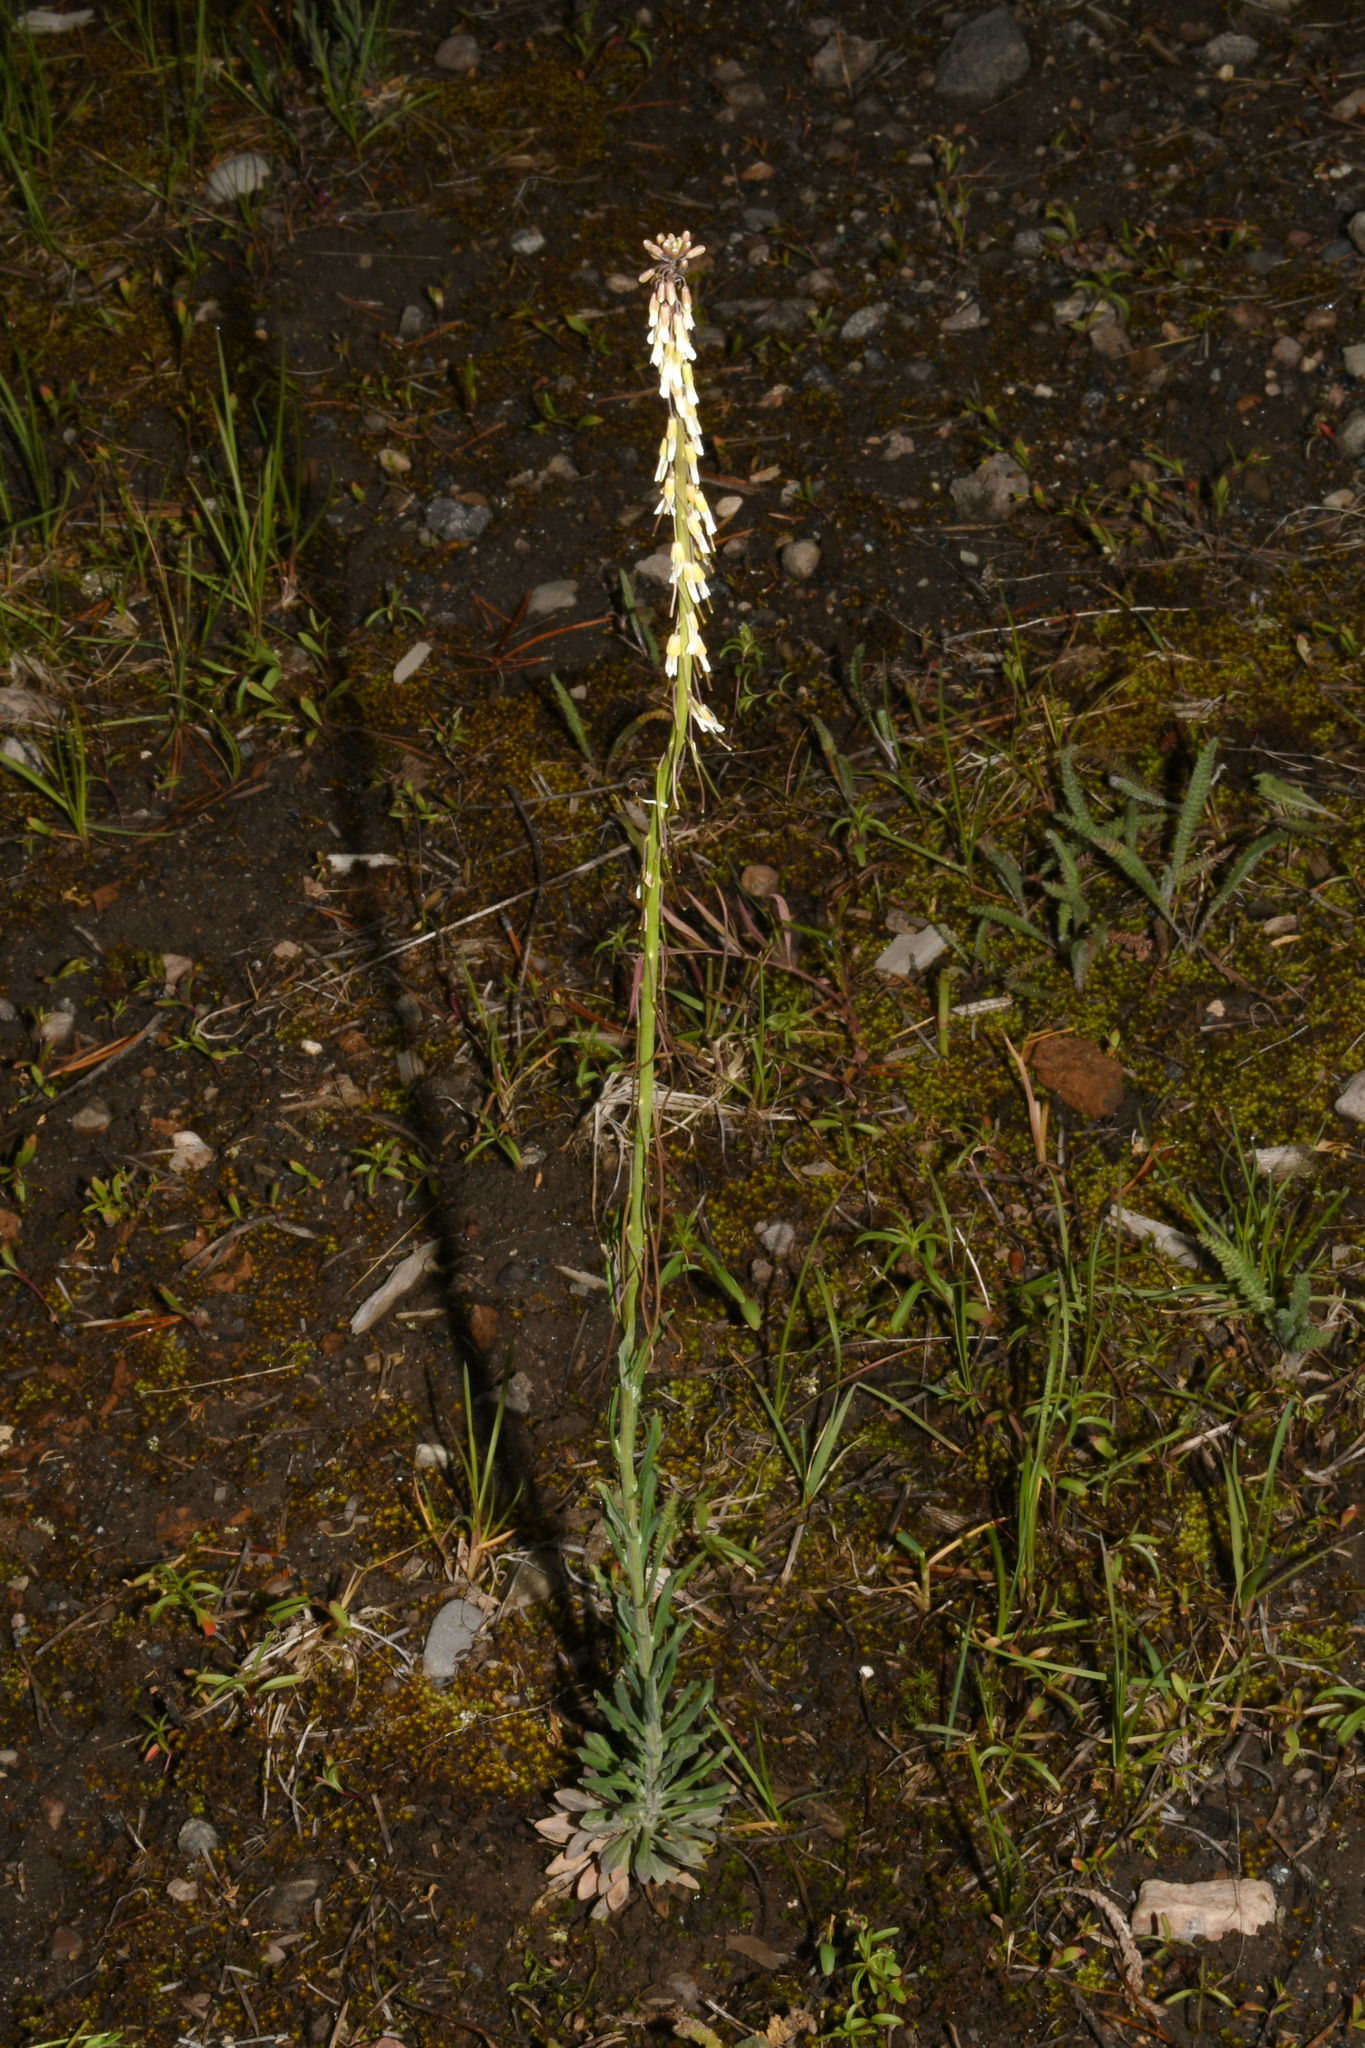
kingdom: Plantae
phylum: Tracheophyta
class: Magnoliopsida
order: Brassicales
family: Brassicaceae
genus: Boechera
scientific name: Boechera collinsii
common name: Collins' rockcress
